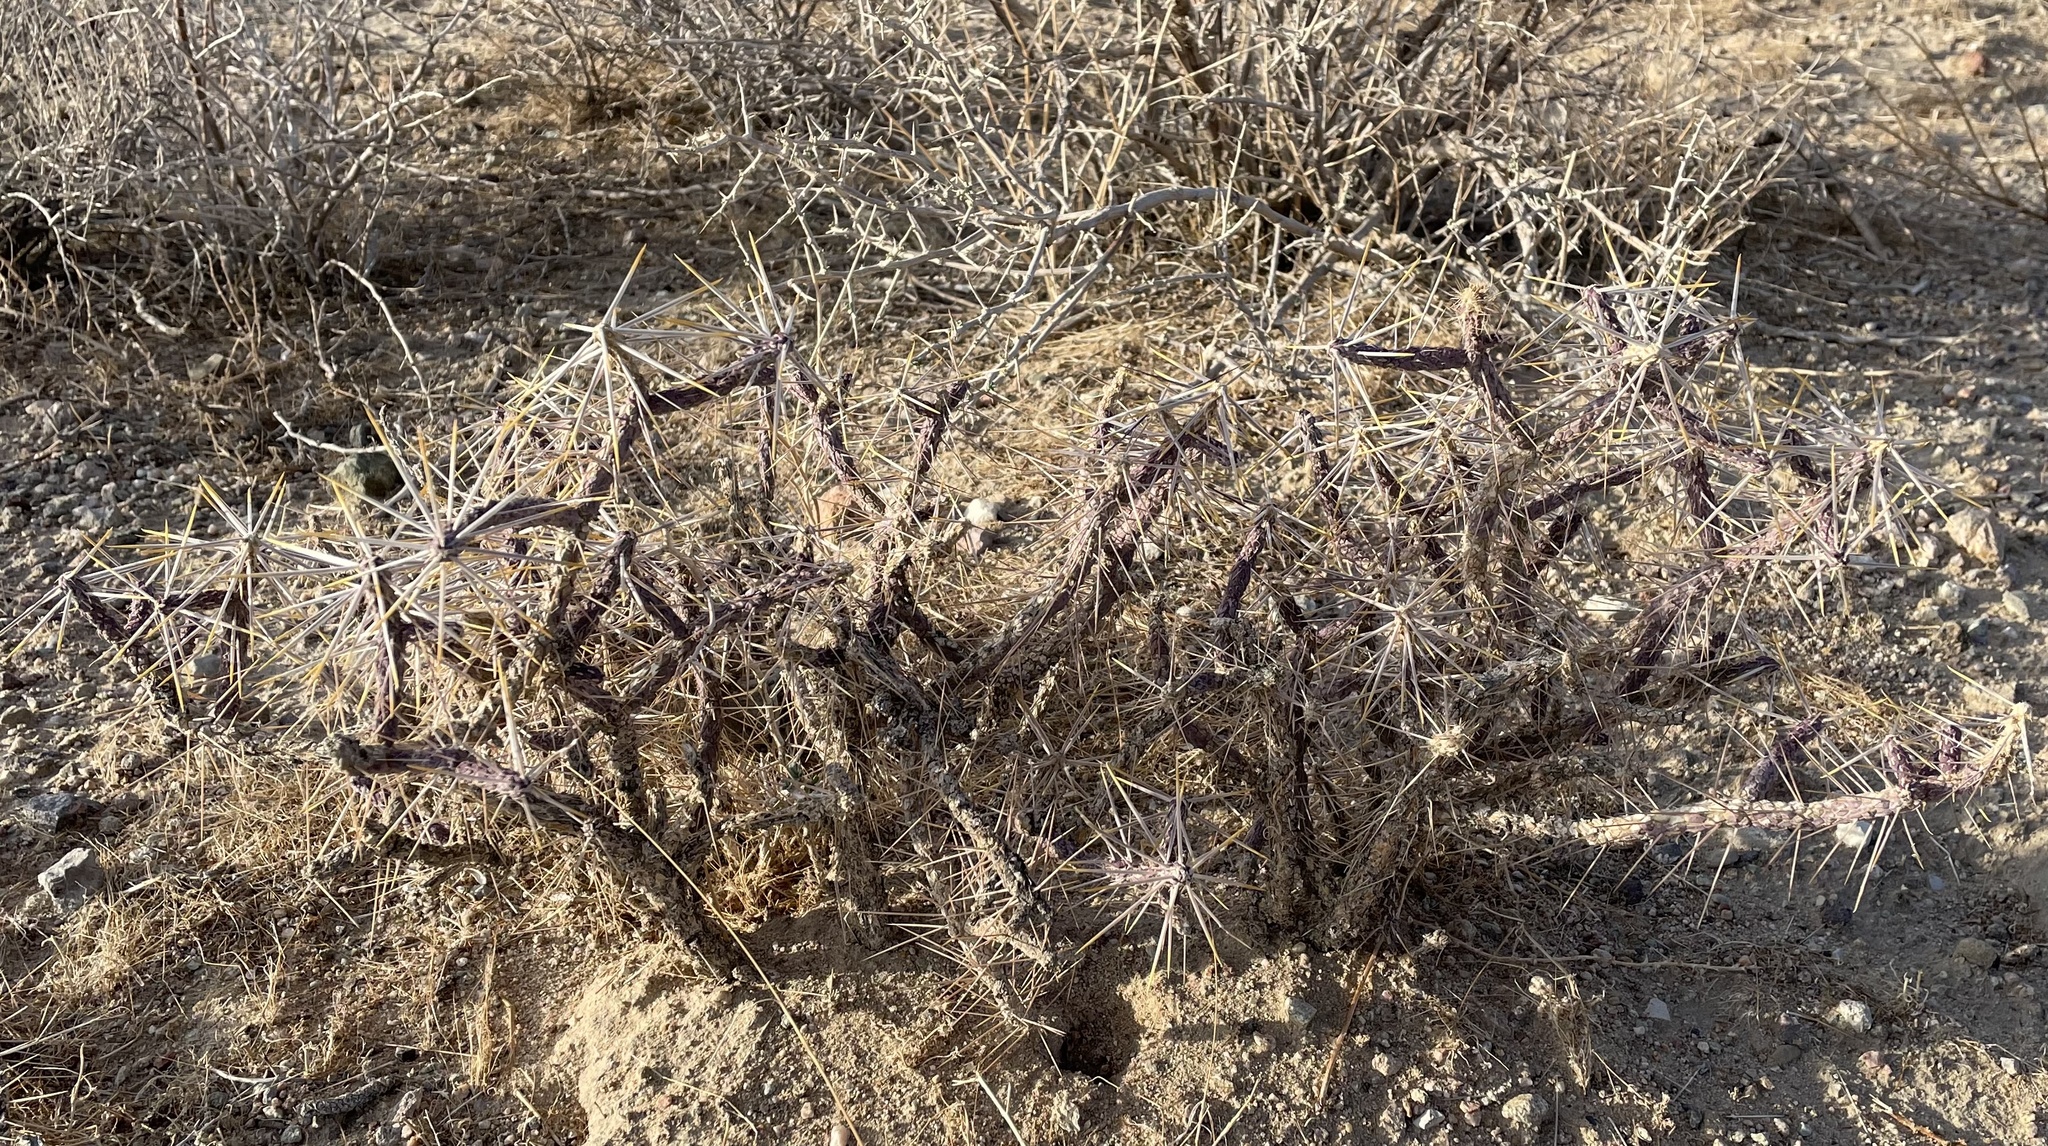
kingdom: Plantae
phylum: Tracheophyta
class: Magnoliopsida
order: Caryophyllales
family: Cactaceae
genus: Cylindropuntia
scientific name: Cylindropuntia ramosissima
